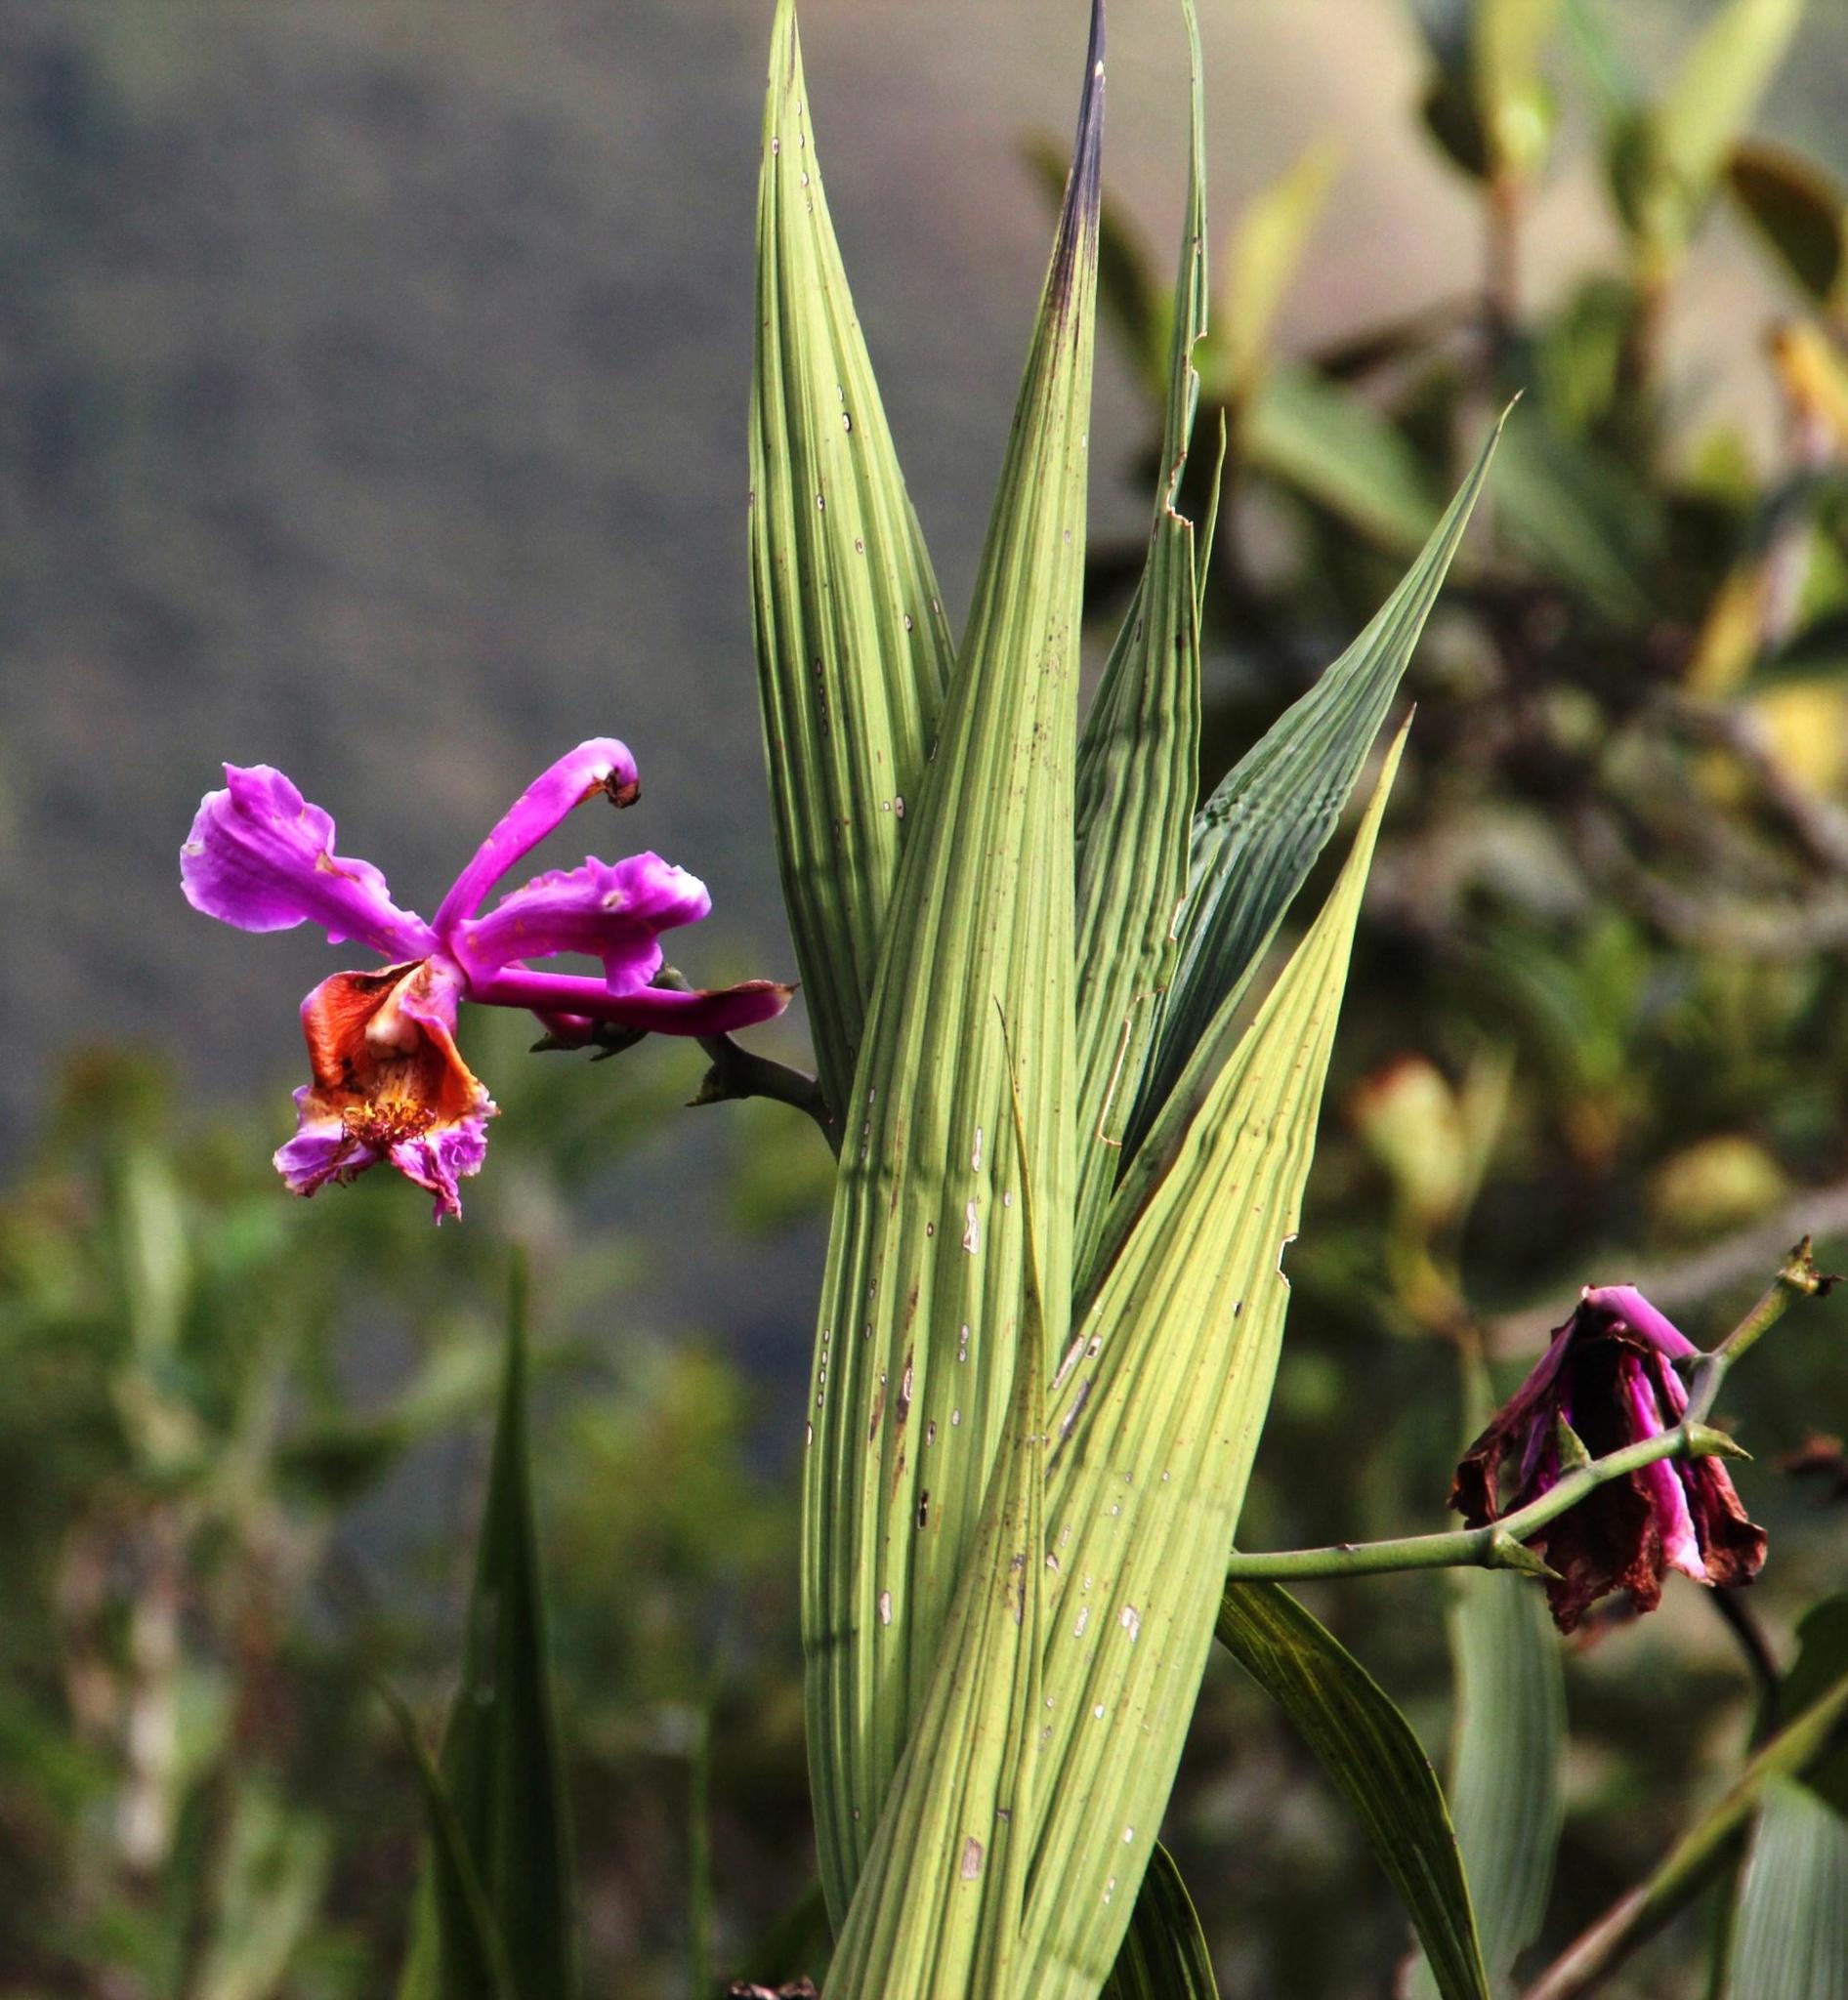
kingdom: Plantae
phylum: Tracheophyta
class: Liliopsida
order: Asparagales
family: Orchidaceae
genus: Sobralia
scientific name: Sobralia dichotoma
